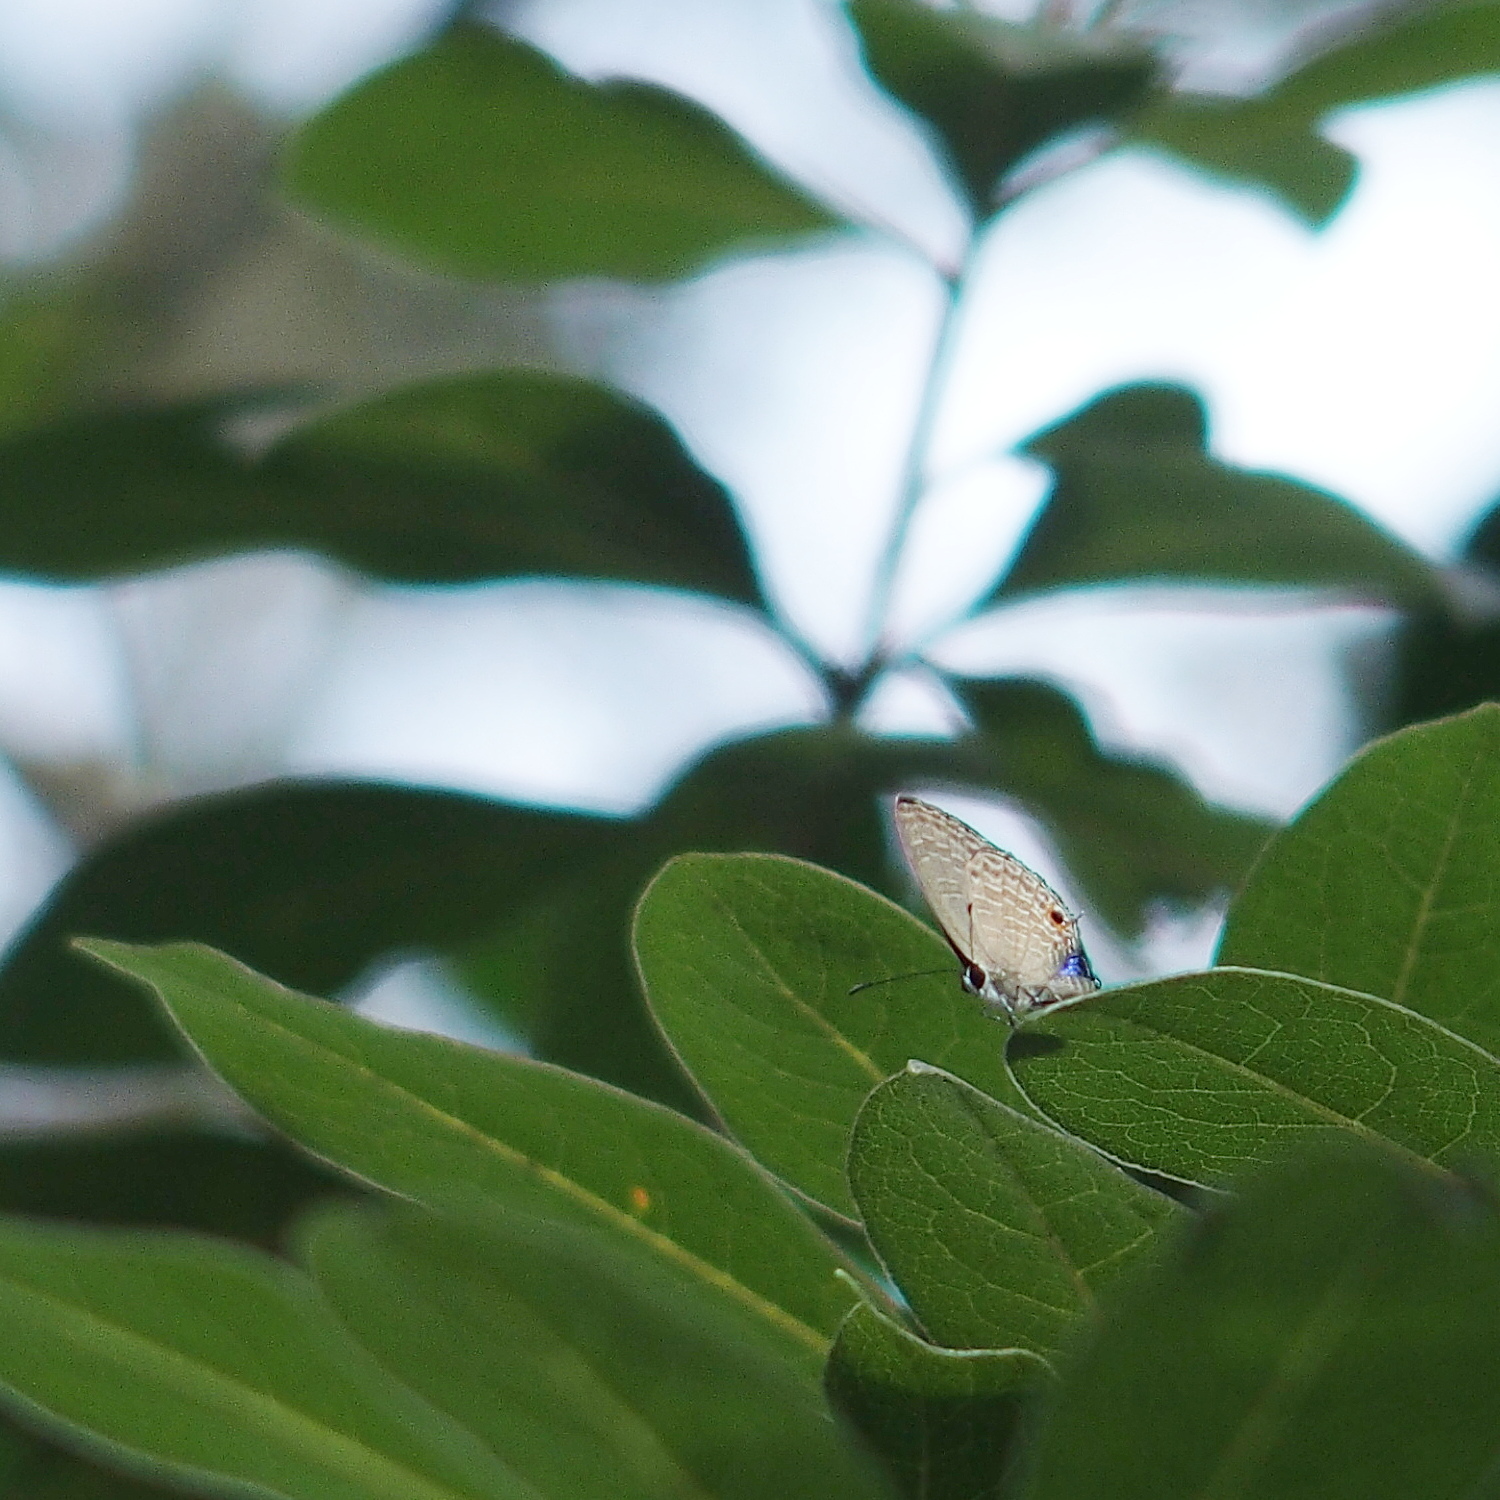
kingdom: Animalia
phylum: Arthropoda
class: Insecta
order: Lepidoptera
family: Lycaenidae
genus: Jamides
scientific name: Jamides bochus
